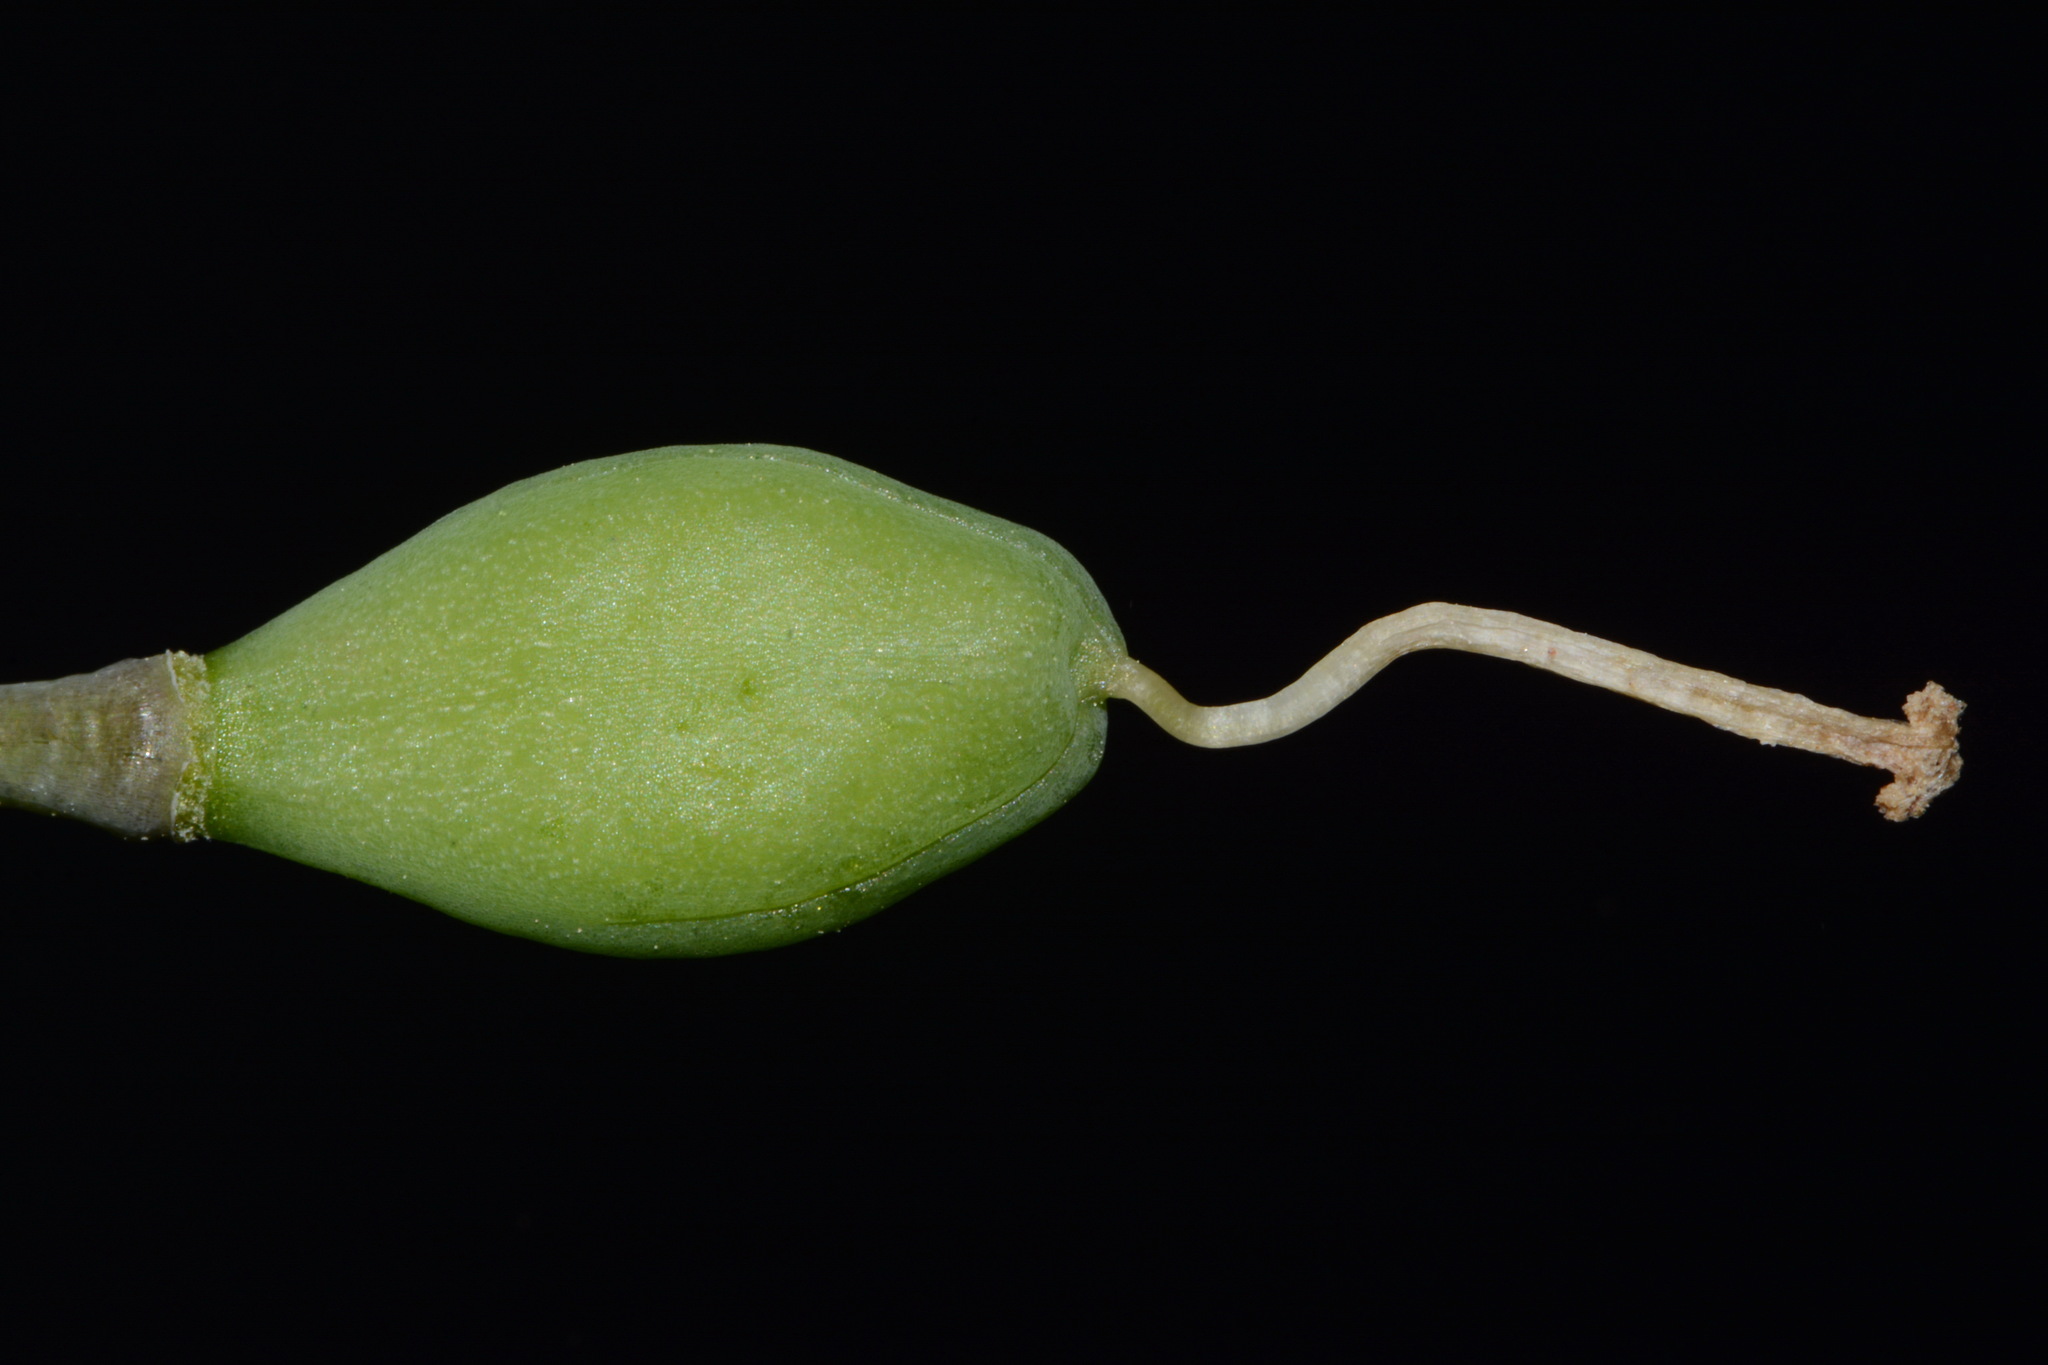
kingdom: Plantae
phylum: Tracheophyta
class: Liliopsida
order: Liliales
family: Liliaceae
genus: Erythronium
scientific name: Erythronium albidum
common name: White trout-lily
